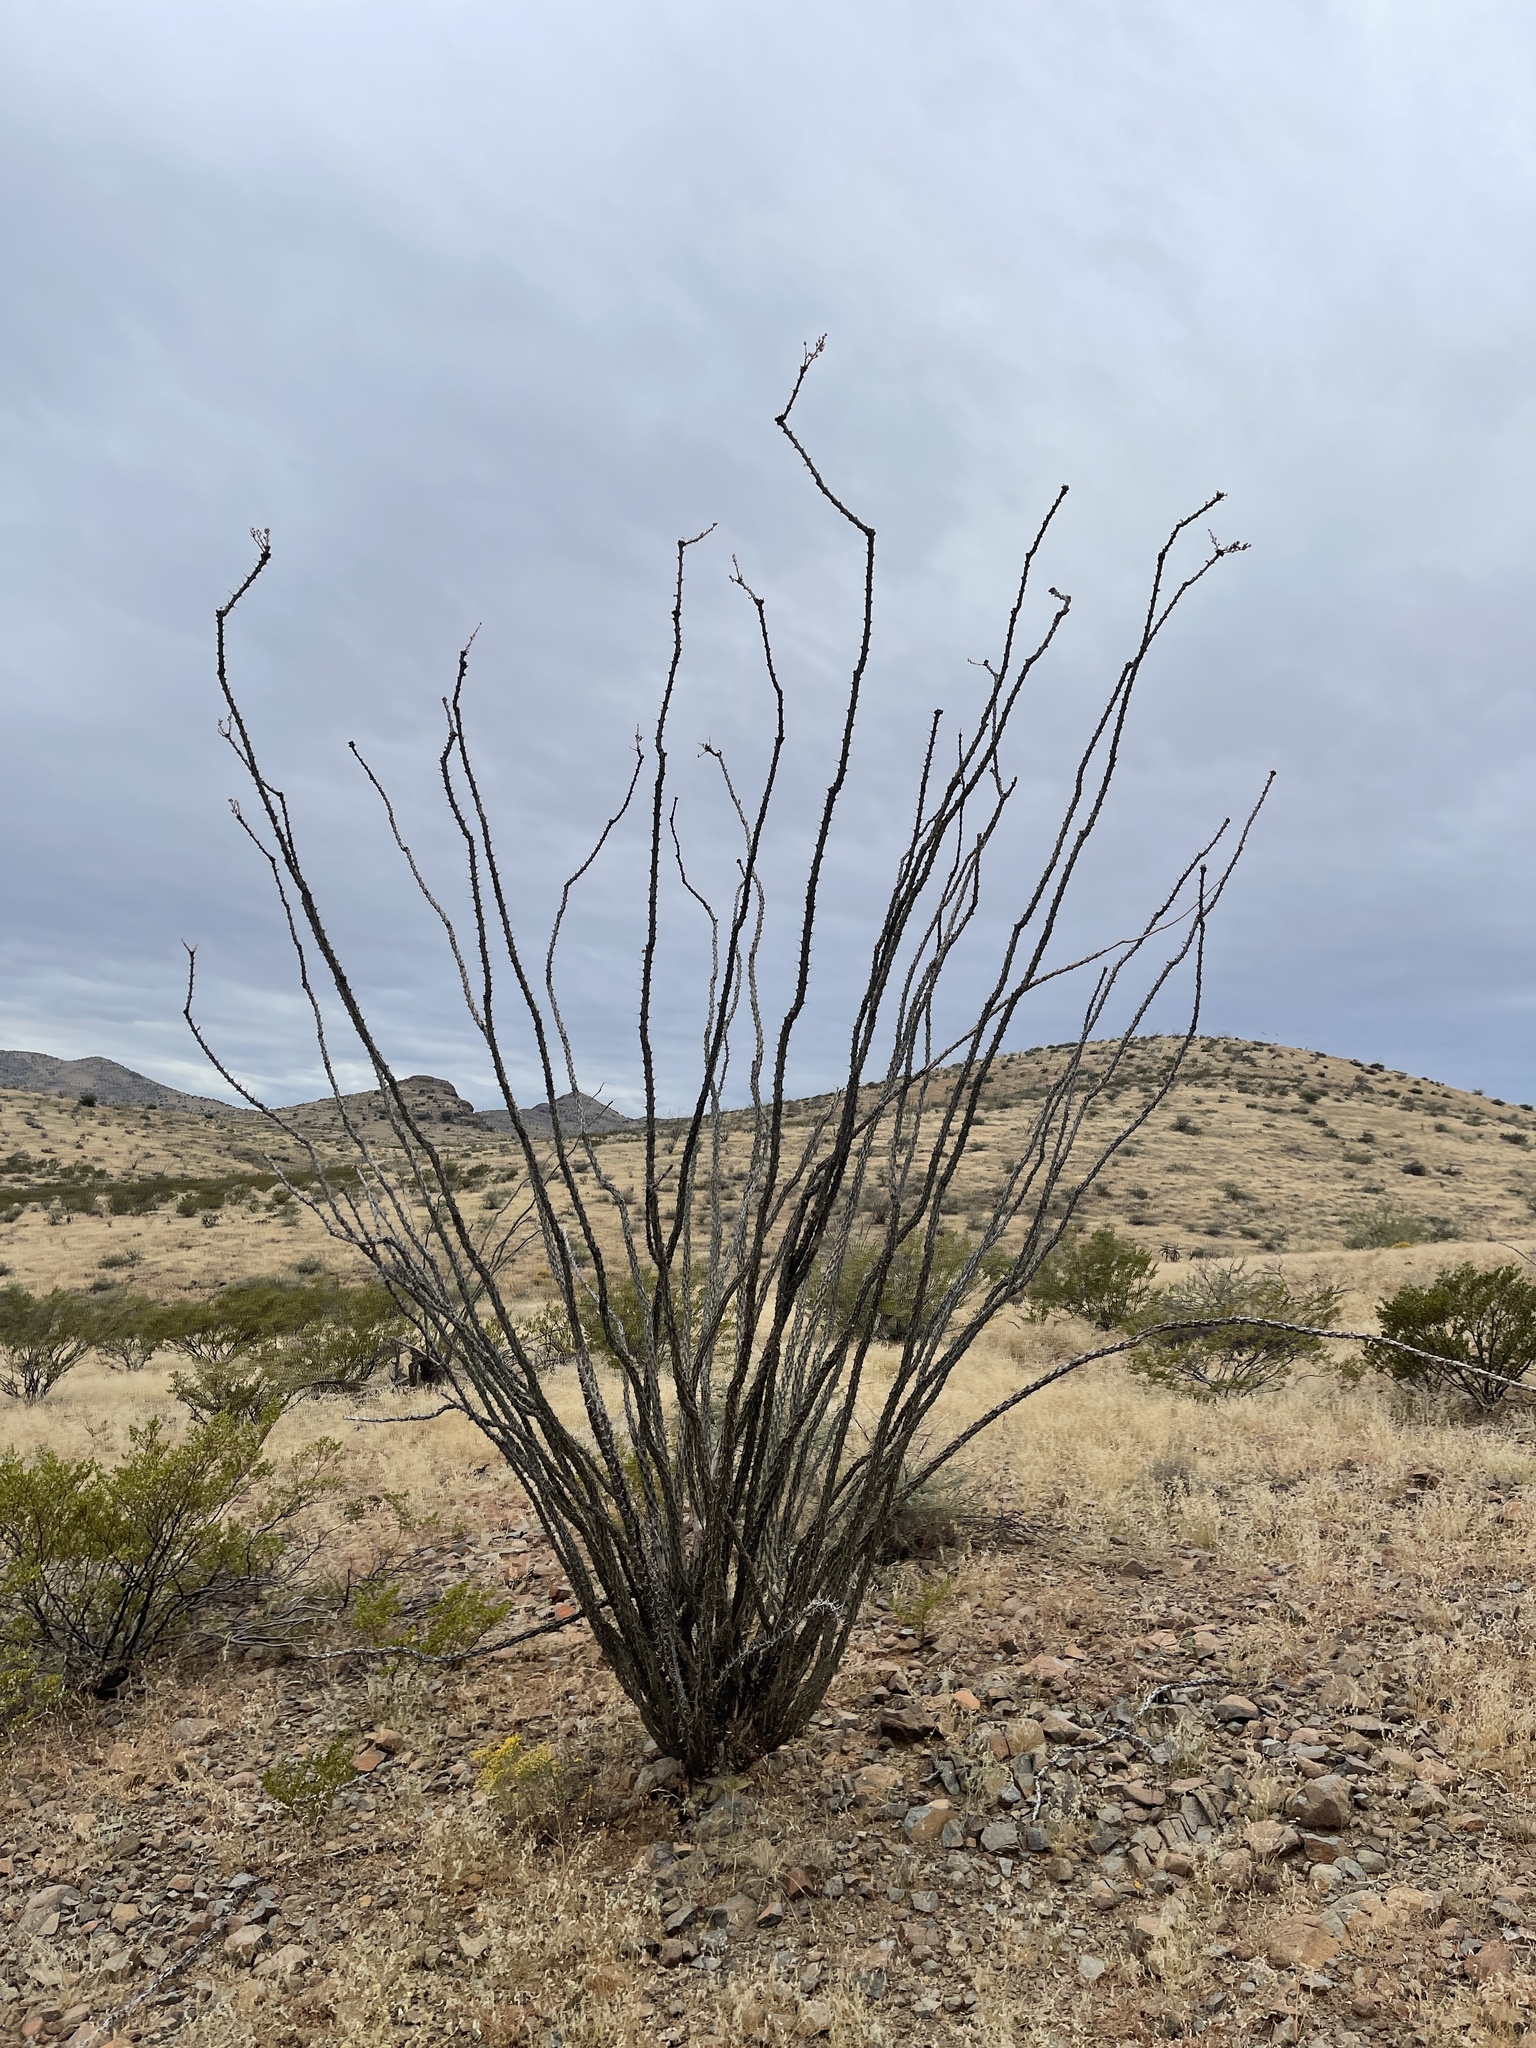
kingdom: Plantae
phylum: Tracheophyta
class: Magnoliopsida
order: Ericales
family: Fouquieriaceae
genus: Fouquieria
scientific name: Fouquieria splendens
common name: Vine-cactus
